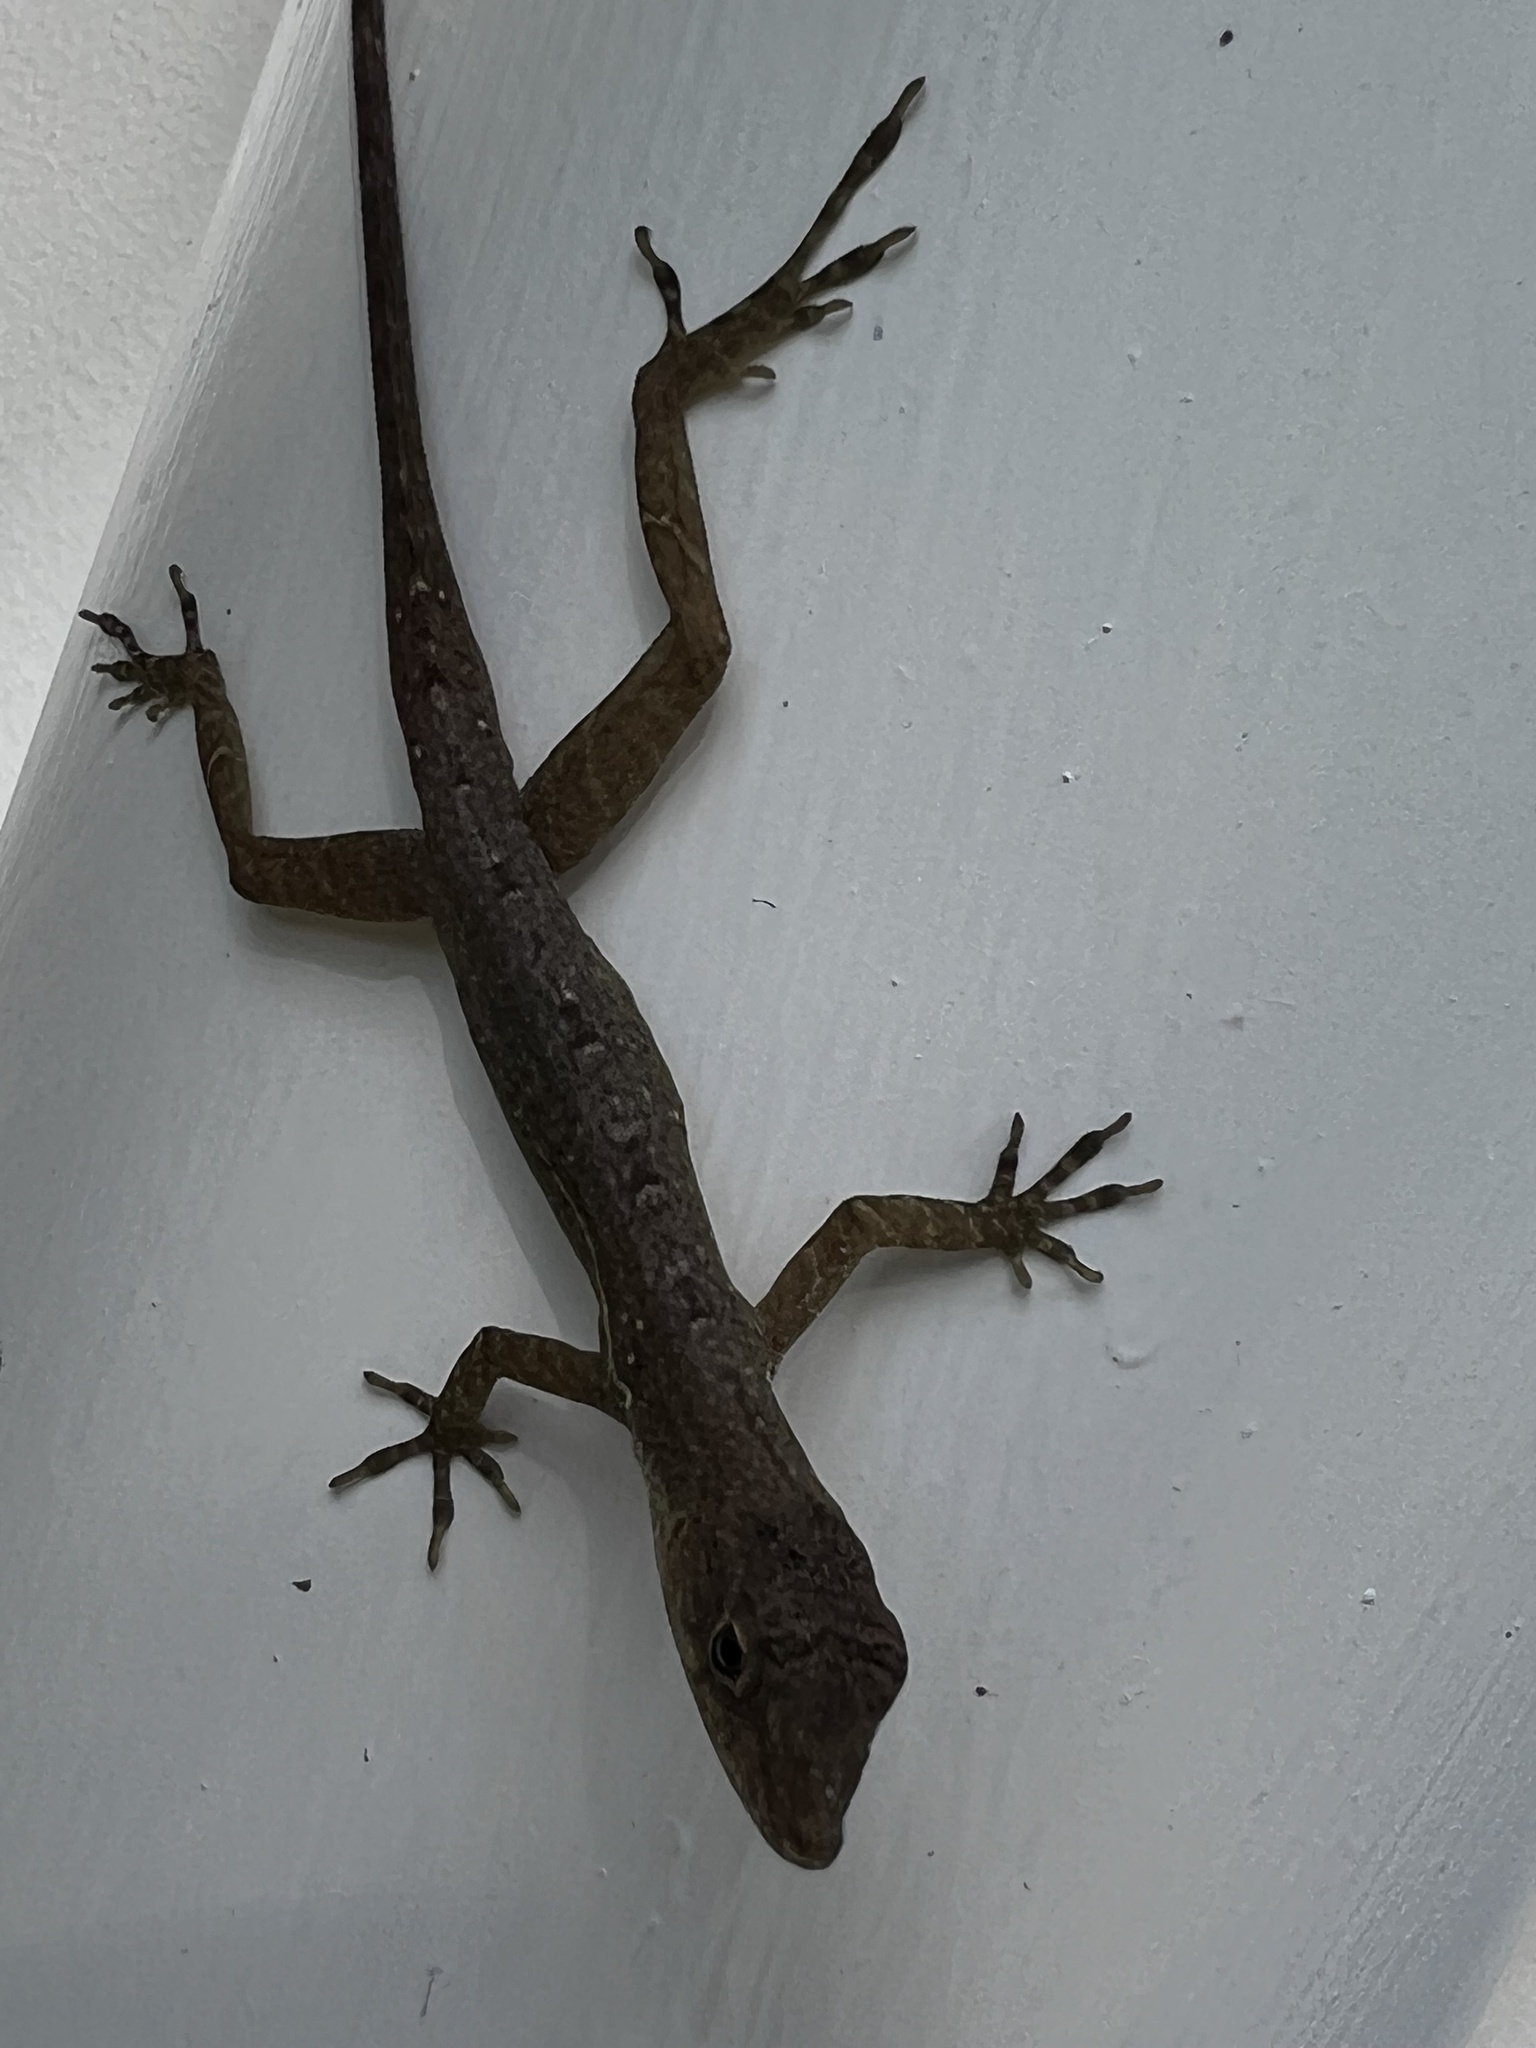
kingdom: Animalia
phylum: Chordata
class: Squamata
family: Dactyloidae
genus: Anolis
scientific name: Anolis polylepis
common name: Many-scaled anole
